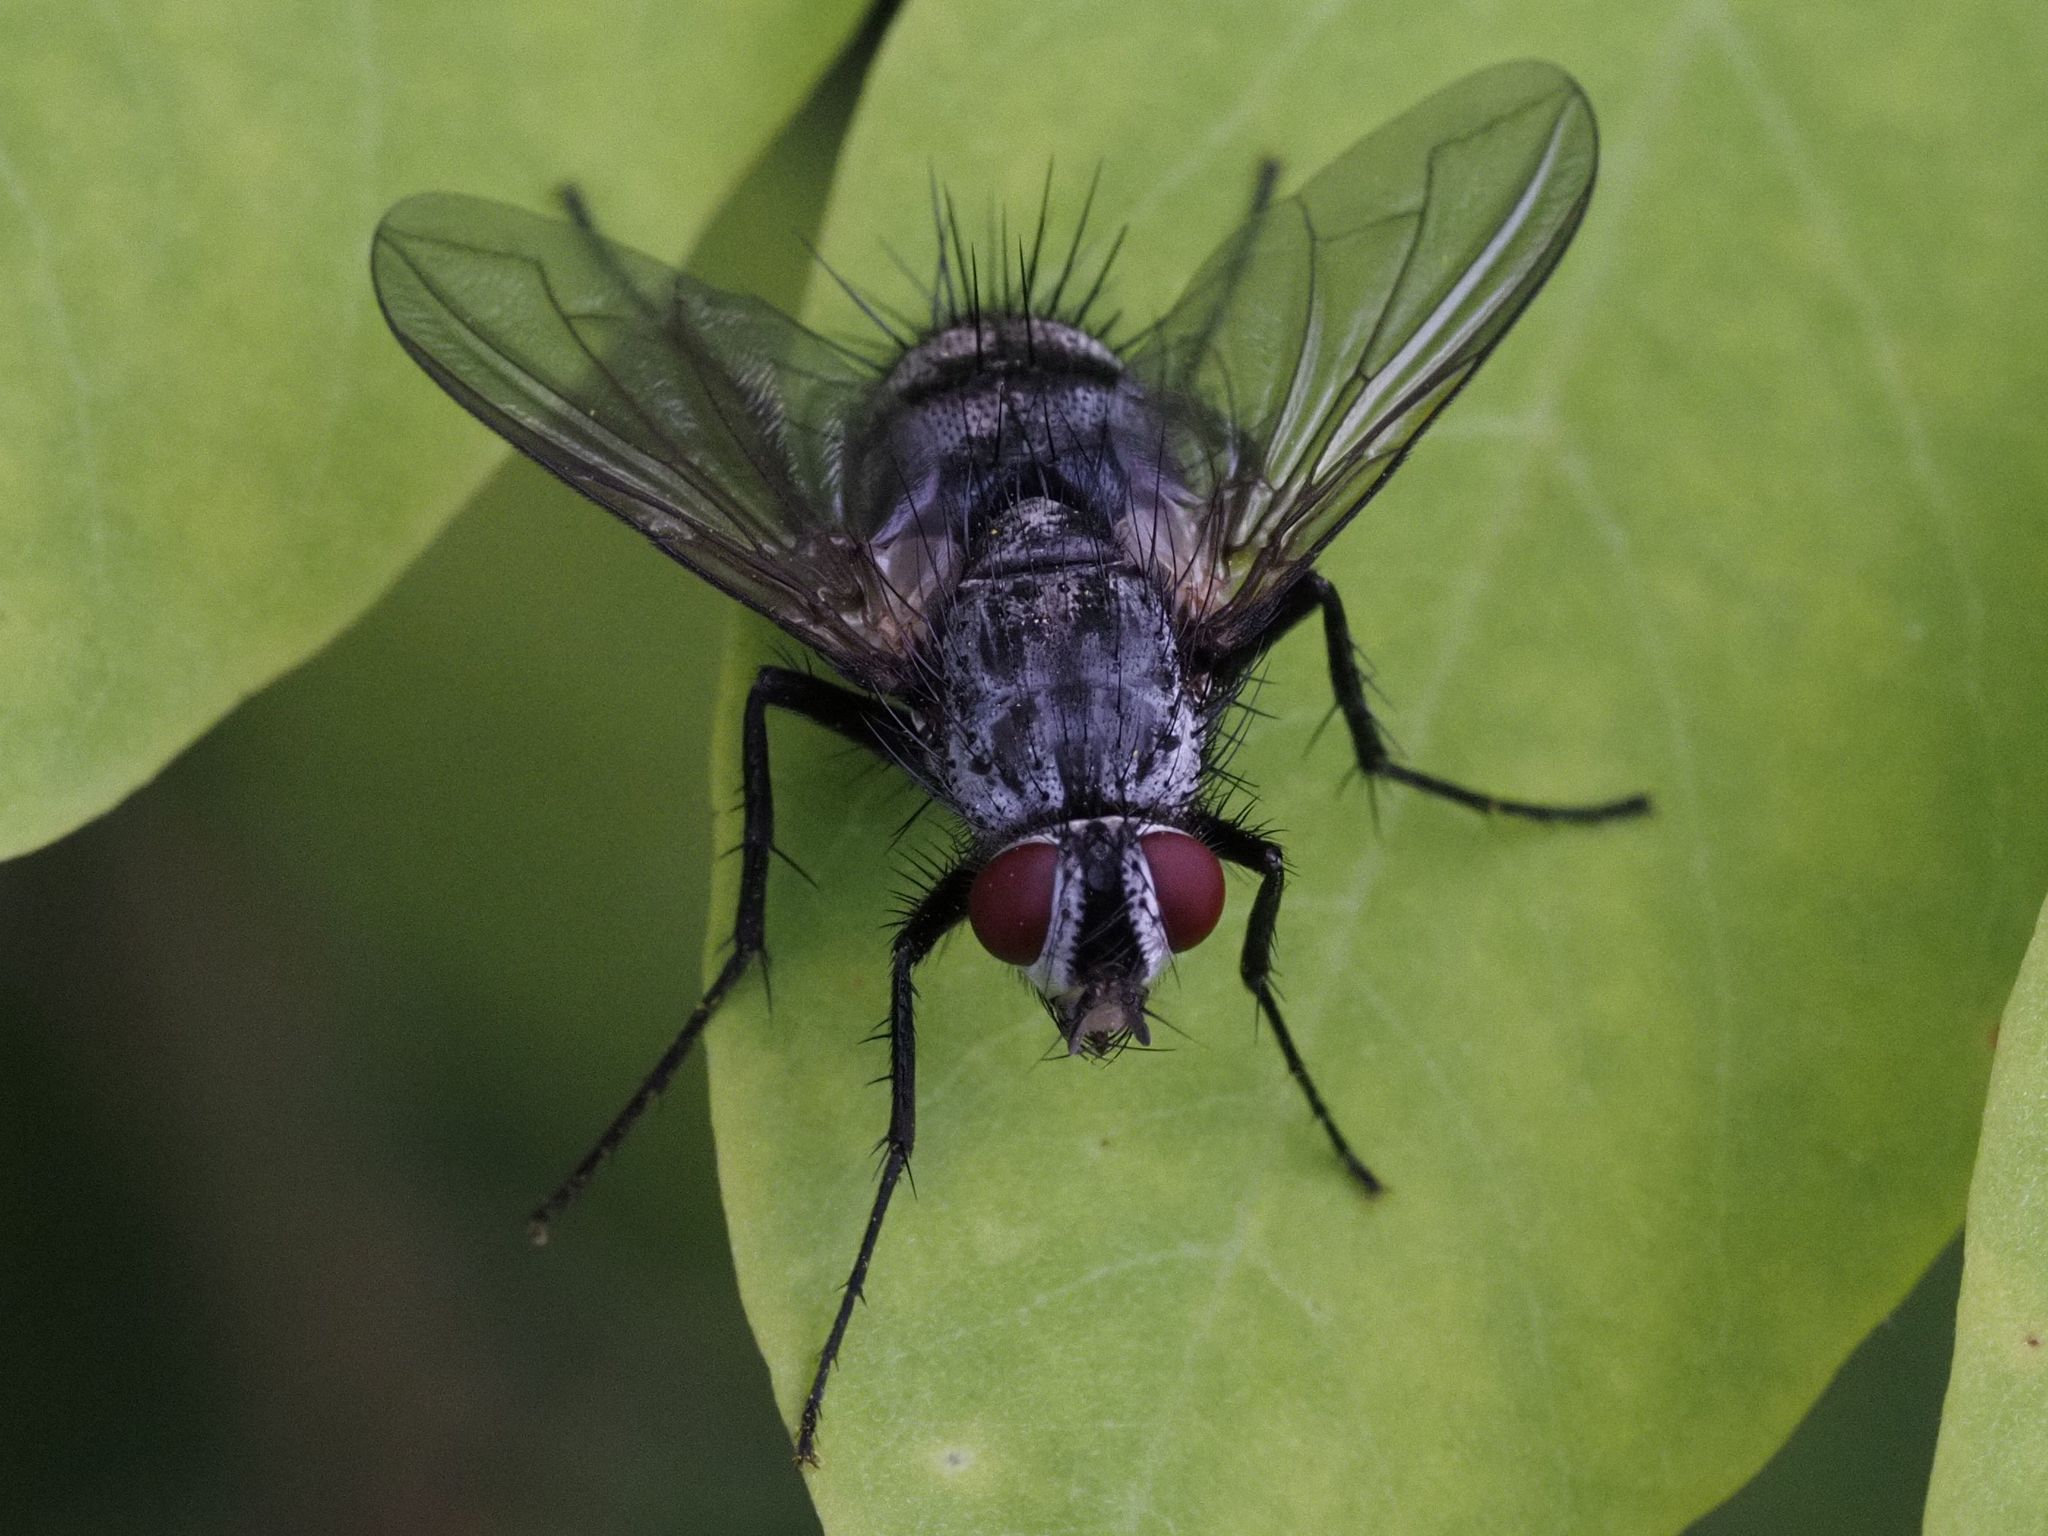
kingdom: Animalia
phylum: Arthropoda
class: Insecta
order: Diptera
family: Tachinidae
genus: Dinera
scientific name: Dinera ferina
